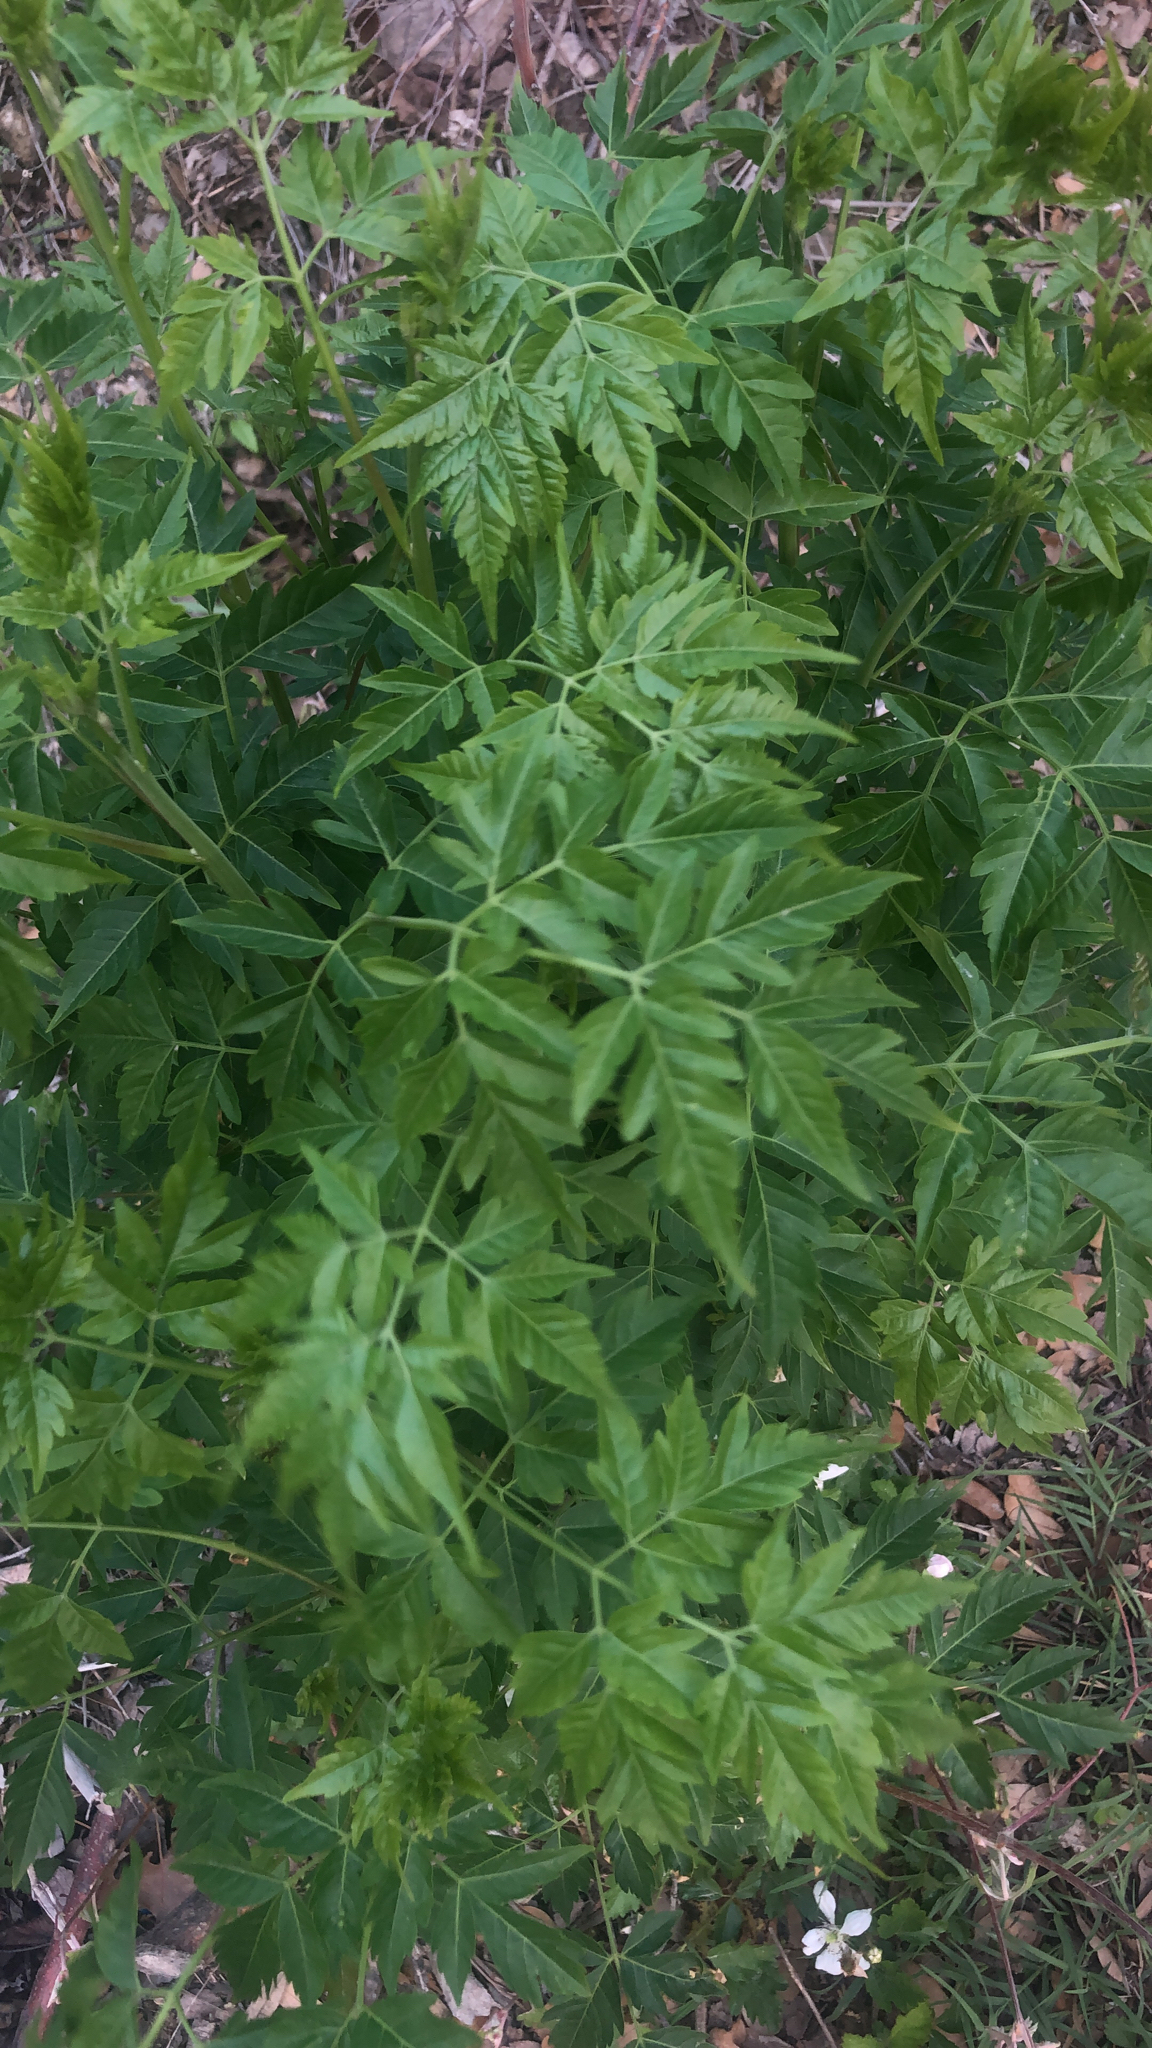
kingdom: Plantae
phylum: Tracheophyta
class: Magnoliopsida
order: Sapindales
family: Meliaceae
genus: Melia
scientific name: Melia azedarach
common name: Chinaberrytree
